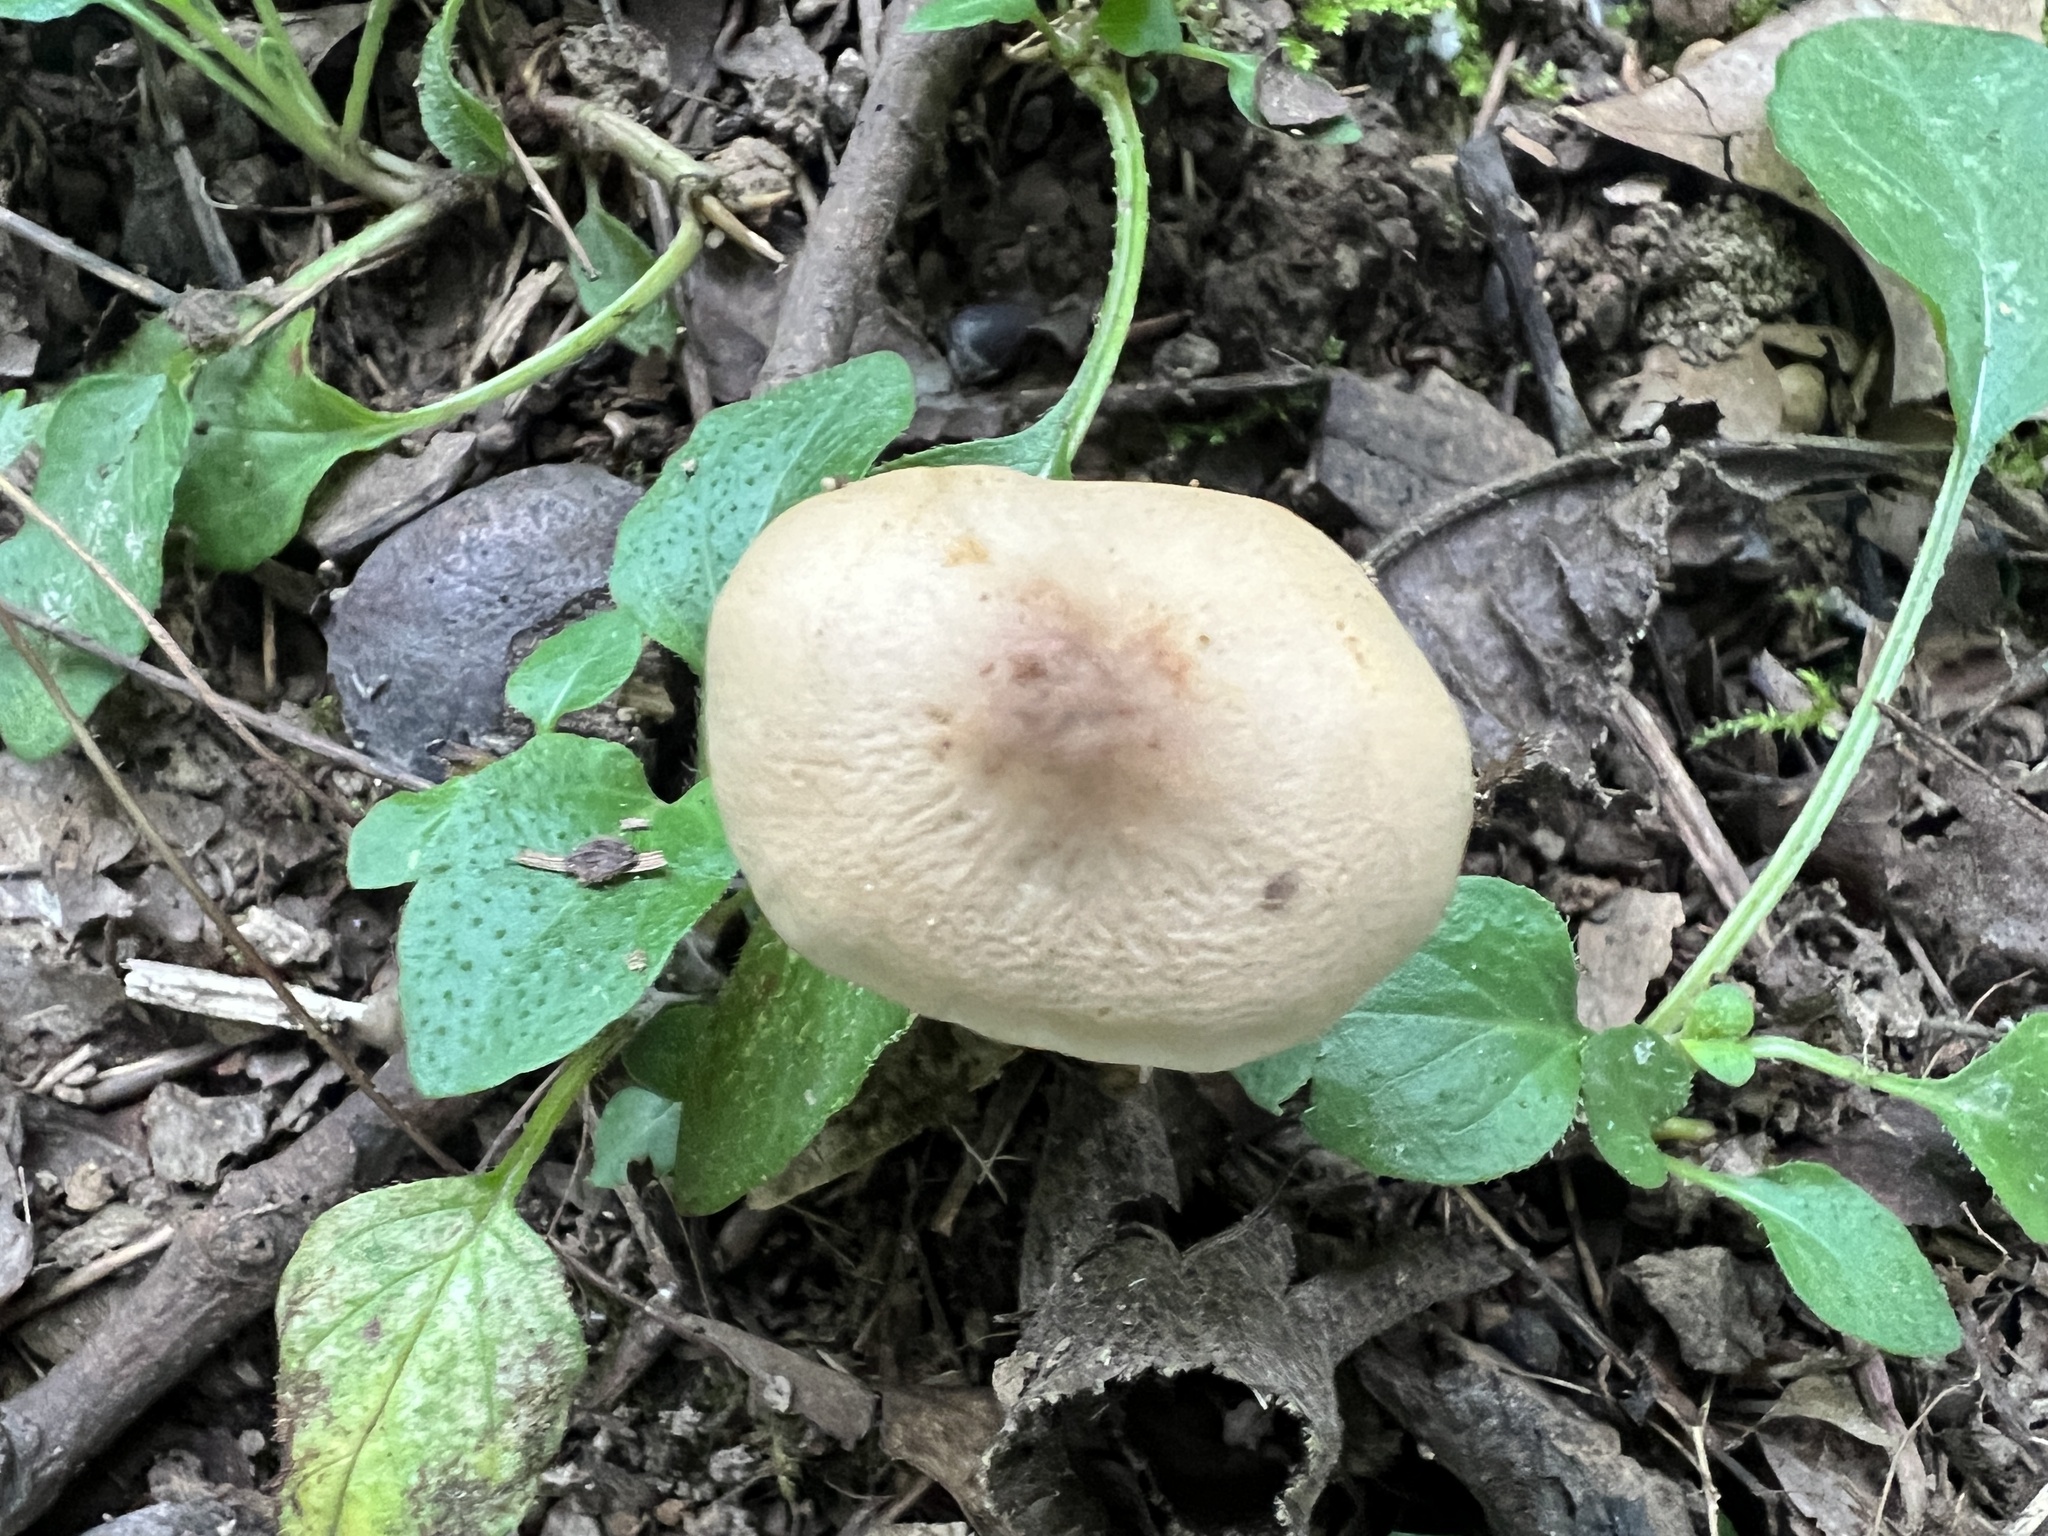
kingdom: Fungi
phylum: Basidiomycota
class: Agaricomycetes
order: Agaricales
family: Strophariaceae
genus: Agrocybe
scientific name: Agrocybe acericola
